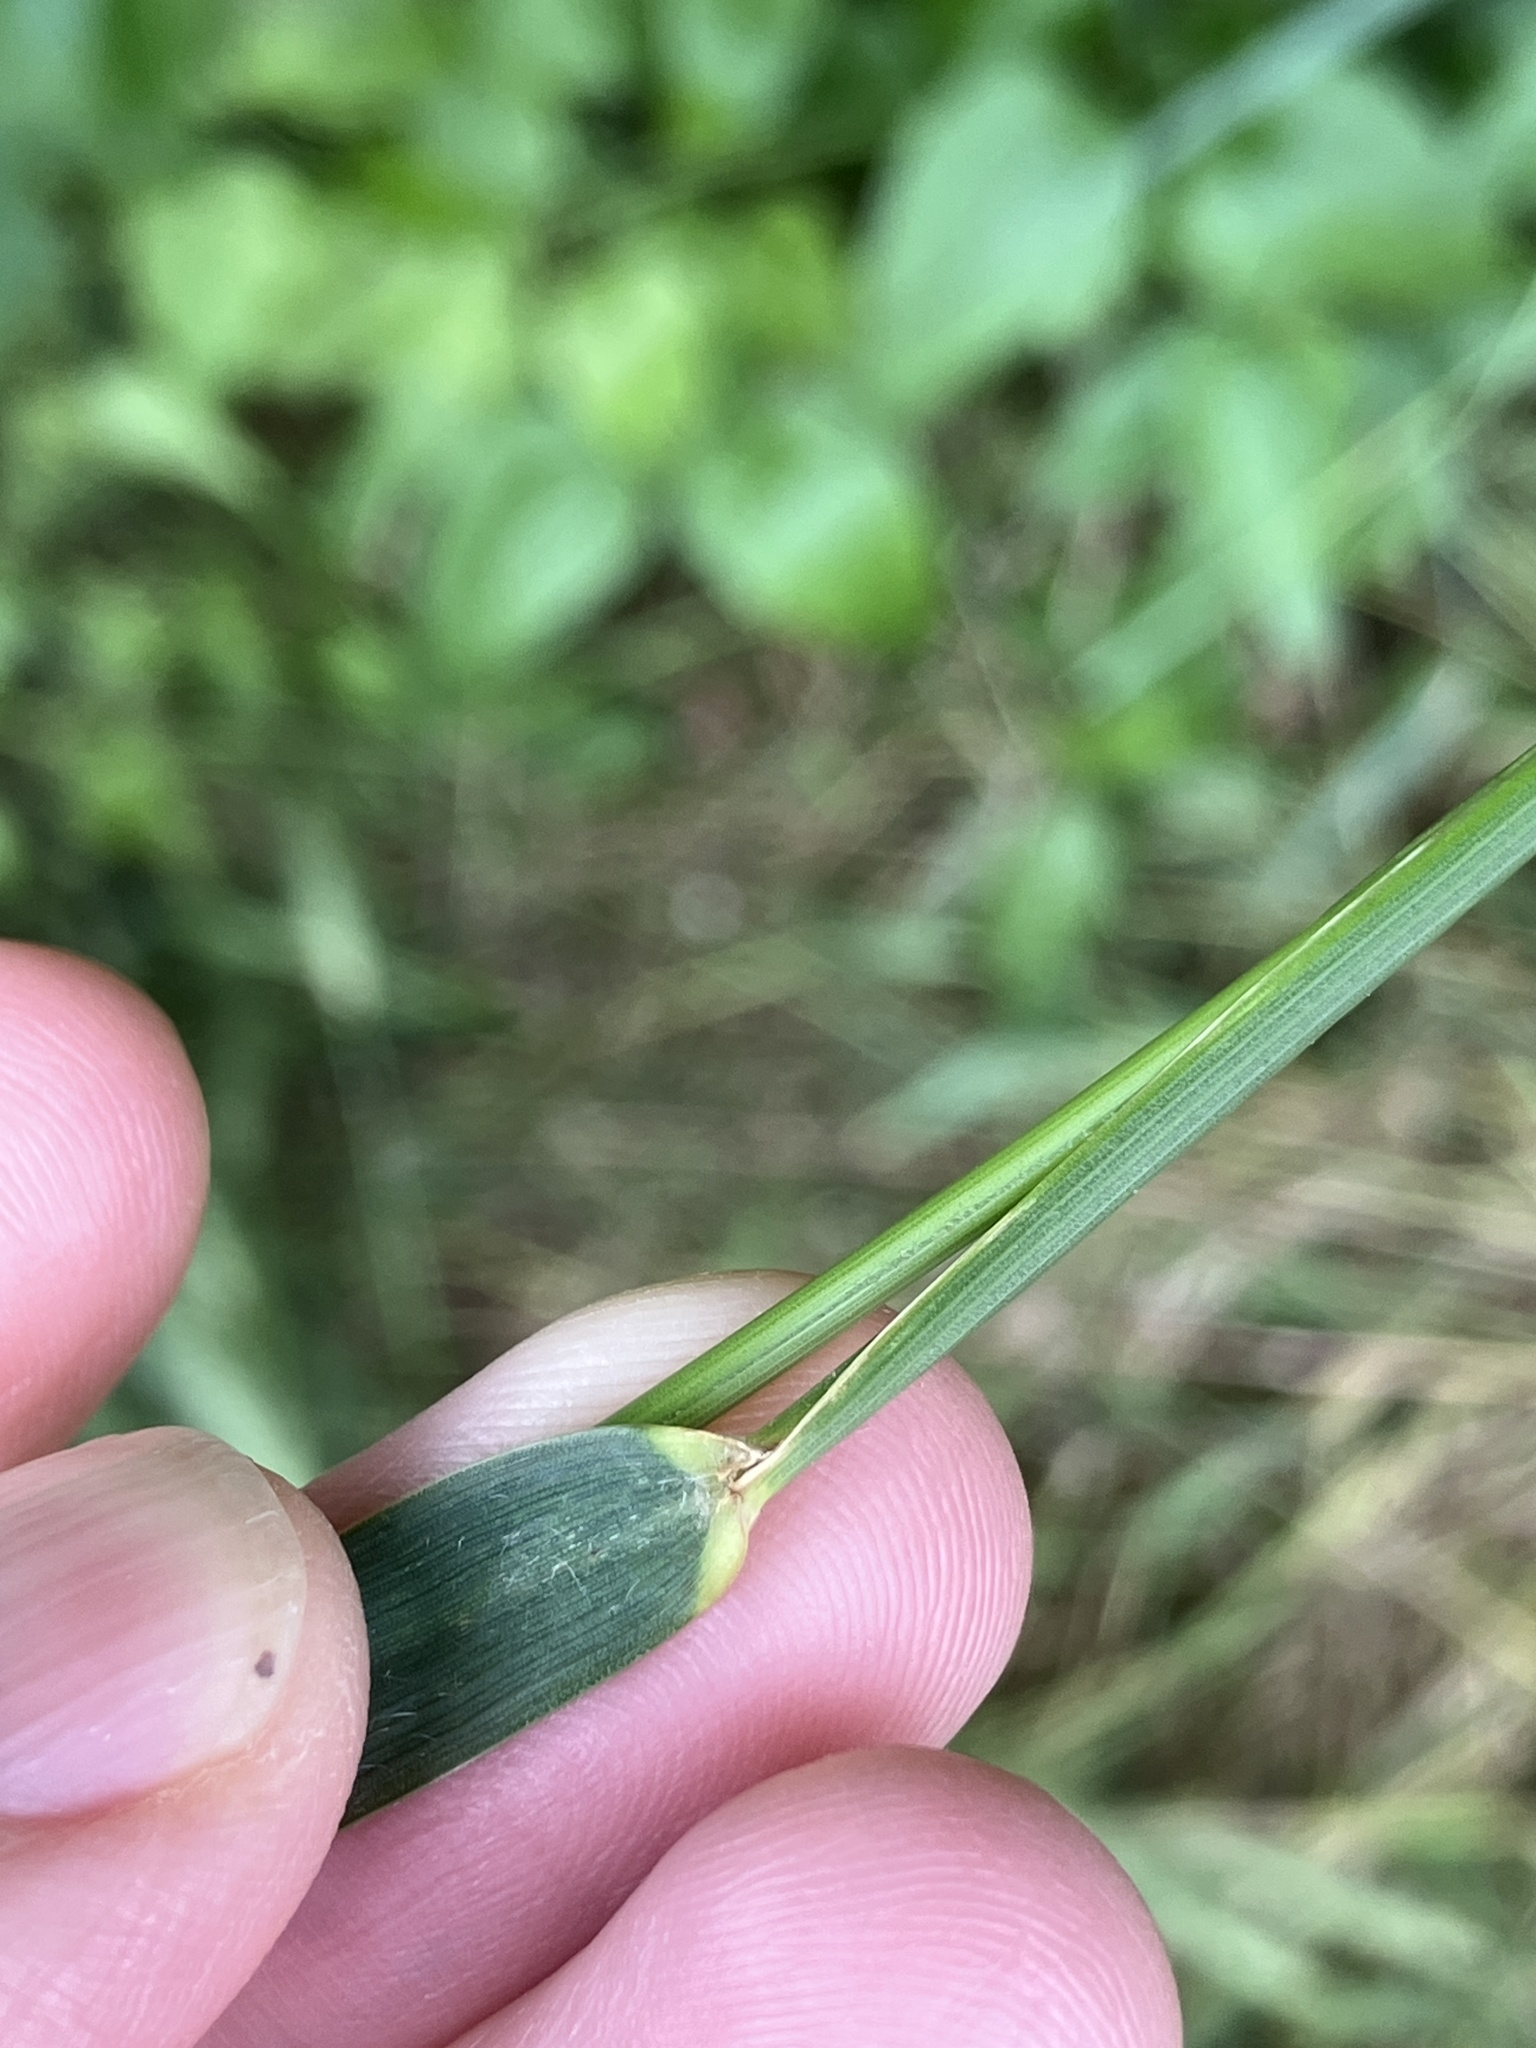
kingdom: Plantae
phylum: Tracheophyta
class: Liliopsida
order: Poales
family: Poaceae
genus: Elymus
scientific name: Elymus repens
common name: Quackgrass
